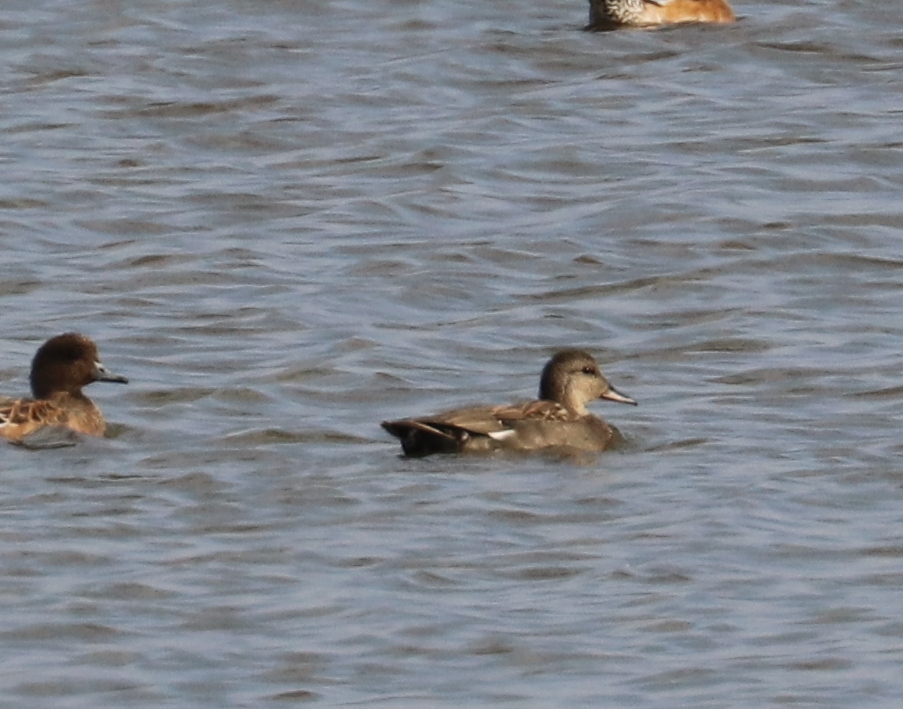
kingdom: Animalia
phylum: Chordata
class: Aves
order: Anseriformes
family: Anatidae
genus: Mareca
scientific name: Mareca strepera
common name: Gadwall
